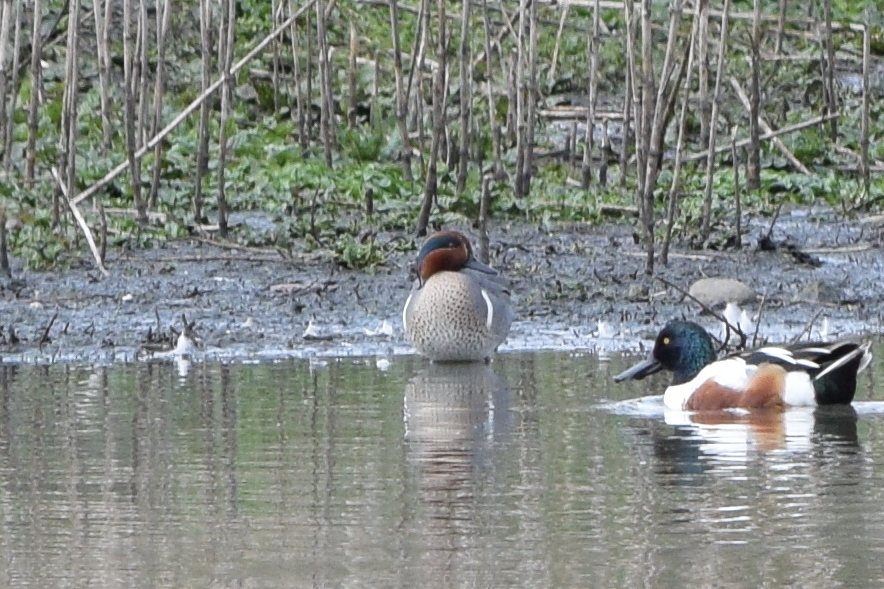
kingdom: Animalia
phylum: Chordata
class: Aves
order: Anseriformes
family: Anatidae
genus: Anas
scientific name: Anas crecca
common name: Eurasian teal
